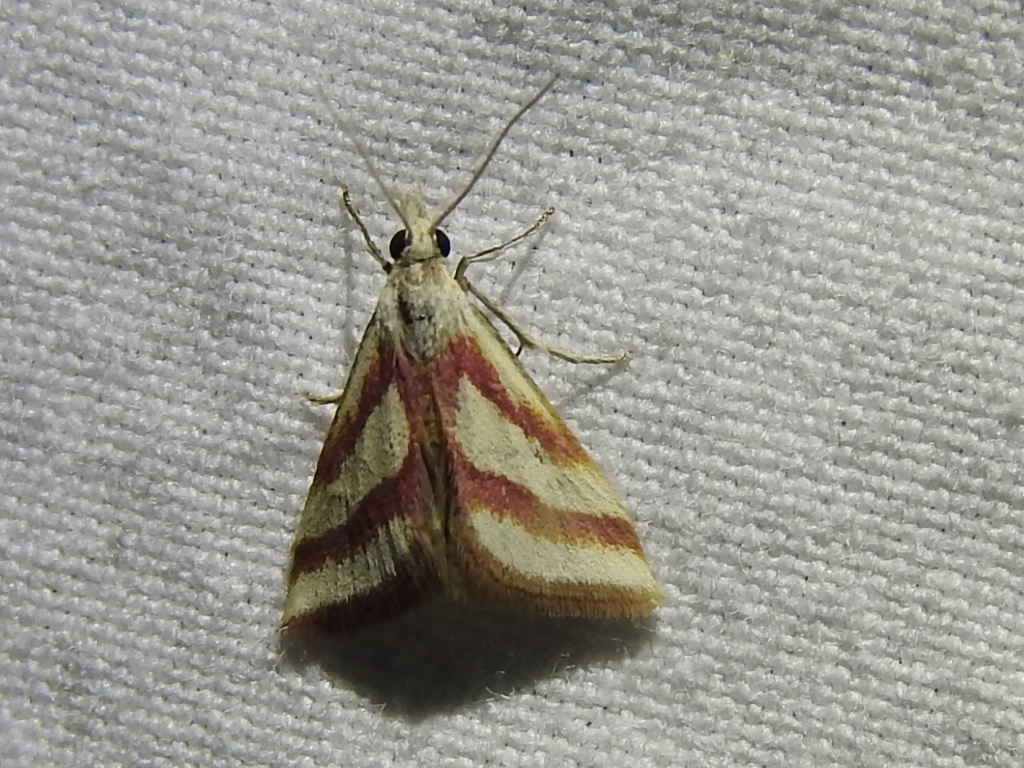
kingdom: Animalia
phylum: Arthropoda
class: Insecta
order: Lepidoptera
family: Crambidae
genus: Microtheoris
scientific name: Microtheoris vibicalis
